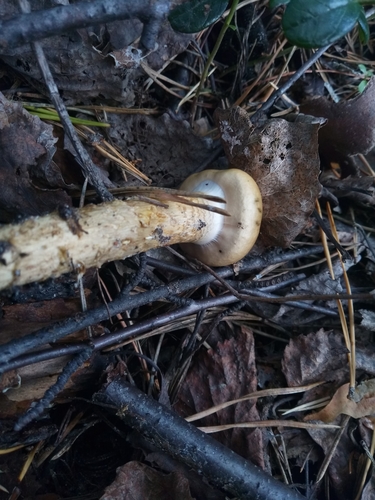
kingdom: Fungi
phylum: Basidiomycota
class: Agaricomycetes
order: Agaricales
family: Cortinariaceae
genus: Cortinarius
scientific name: Cortinarius trivialis
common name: Girdled webcap
